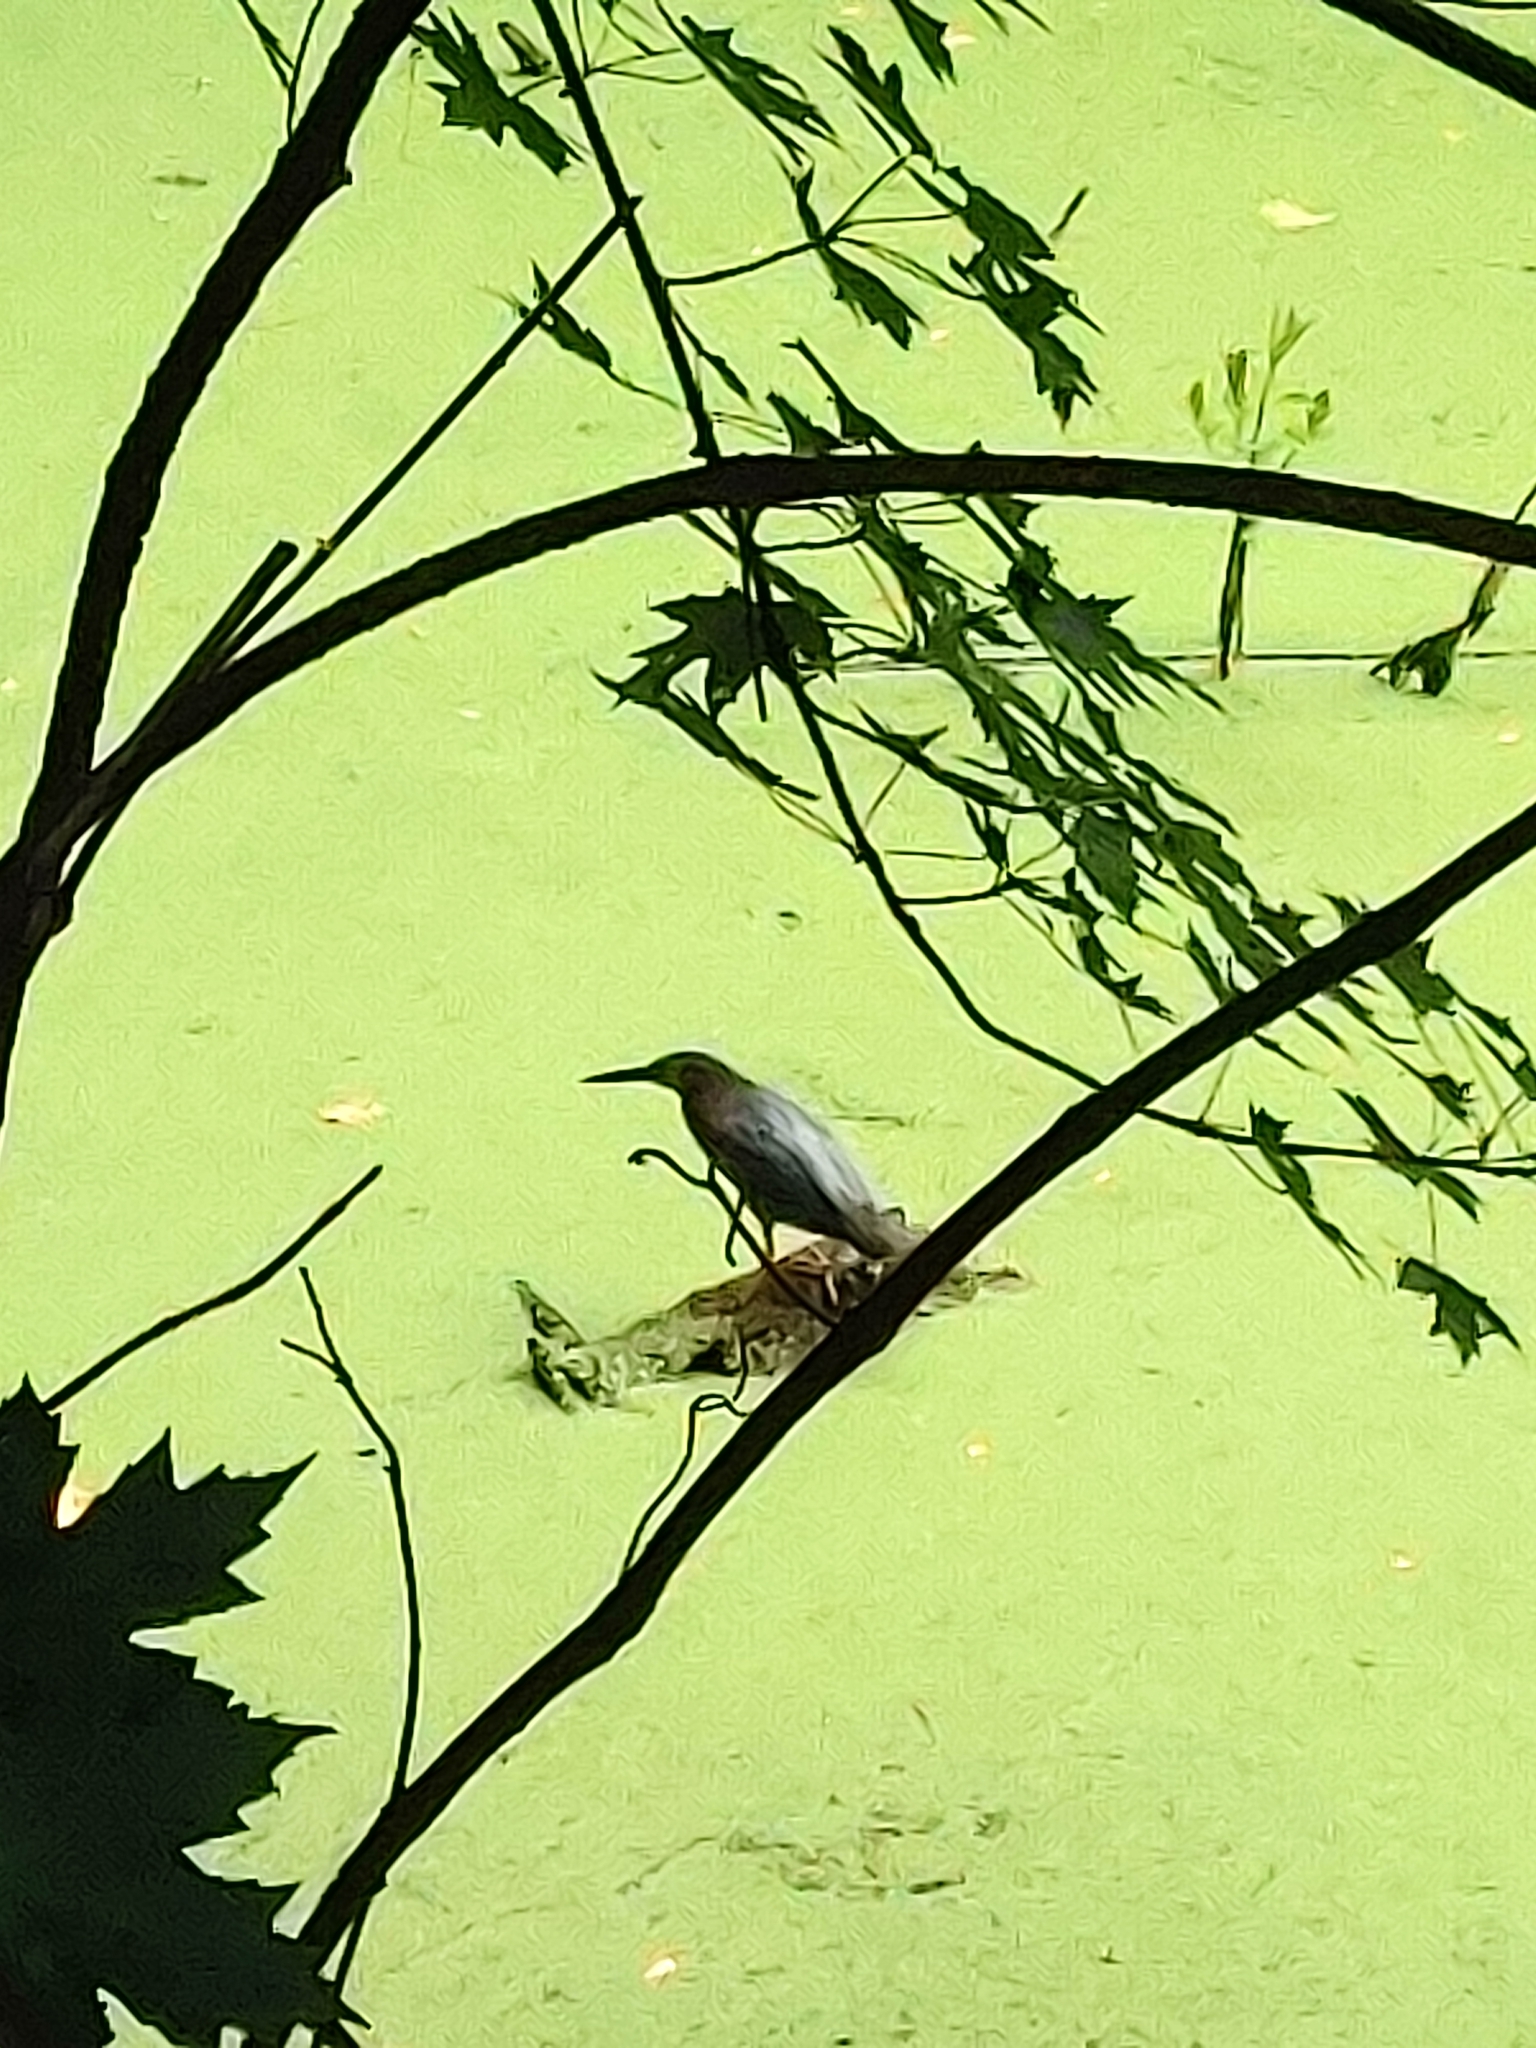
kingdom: Animalia
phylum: Chordata
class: Aves
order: Pelecaniformes
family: Ardeidae
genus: Butorides
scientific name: Butorides virescens
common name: Green heron
